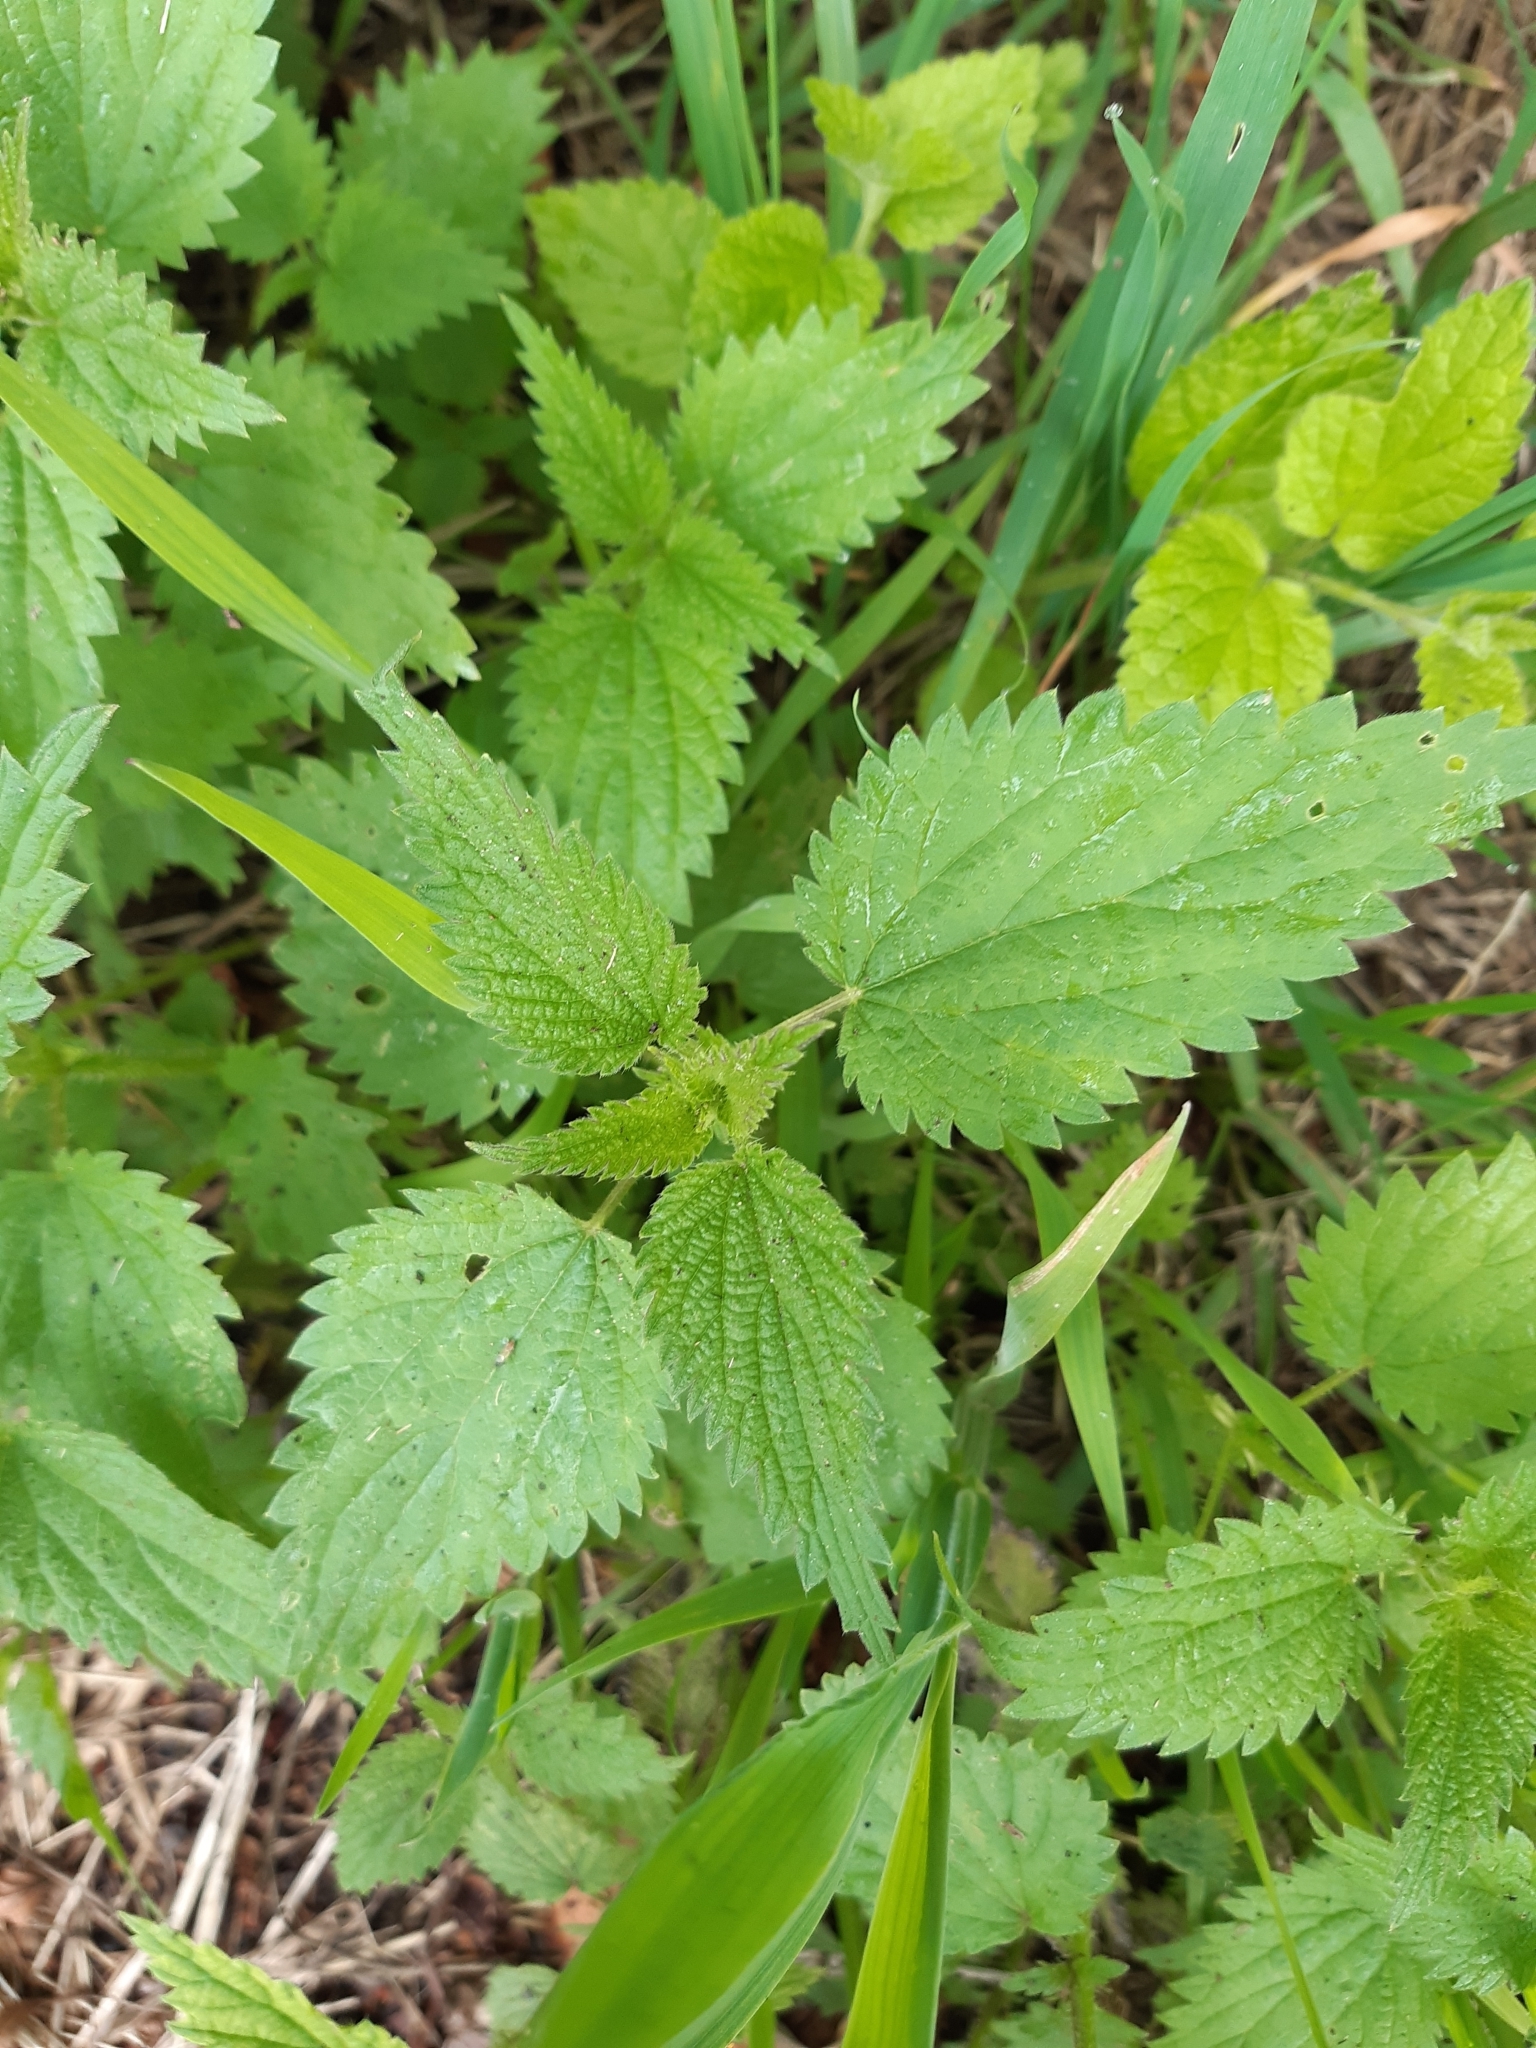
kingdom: Plantae
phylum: Tracheophyta
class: Magnoliopsida
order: Rosales
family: Urticaceae
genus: Urtica
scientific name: Urtica dioica
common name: Common nettle
